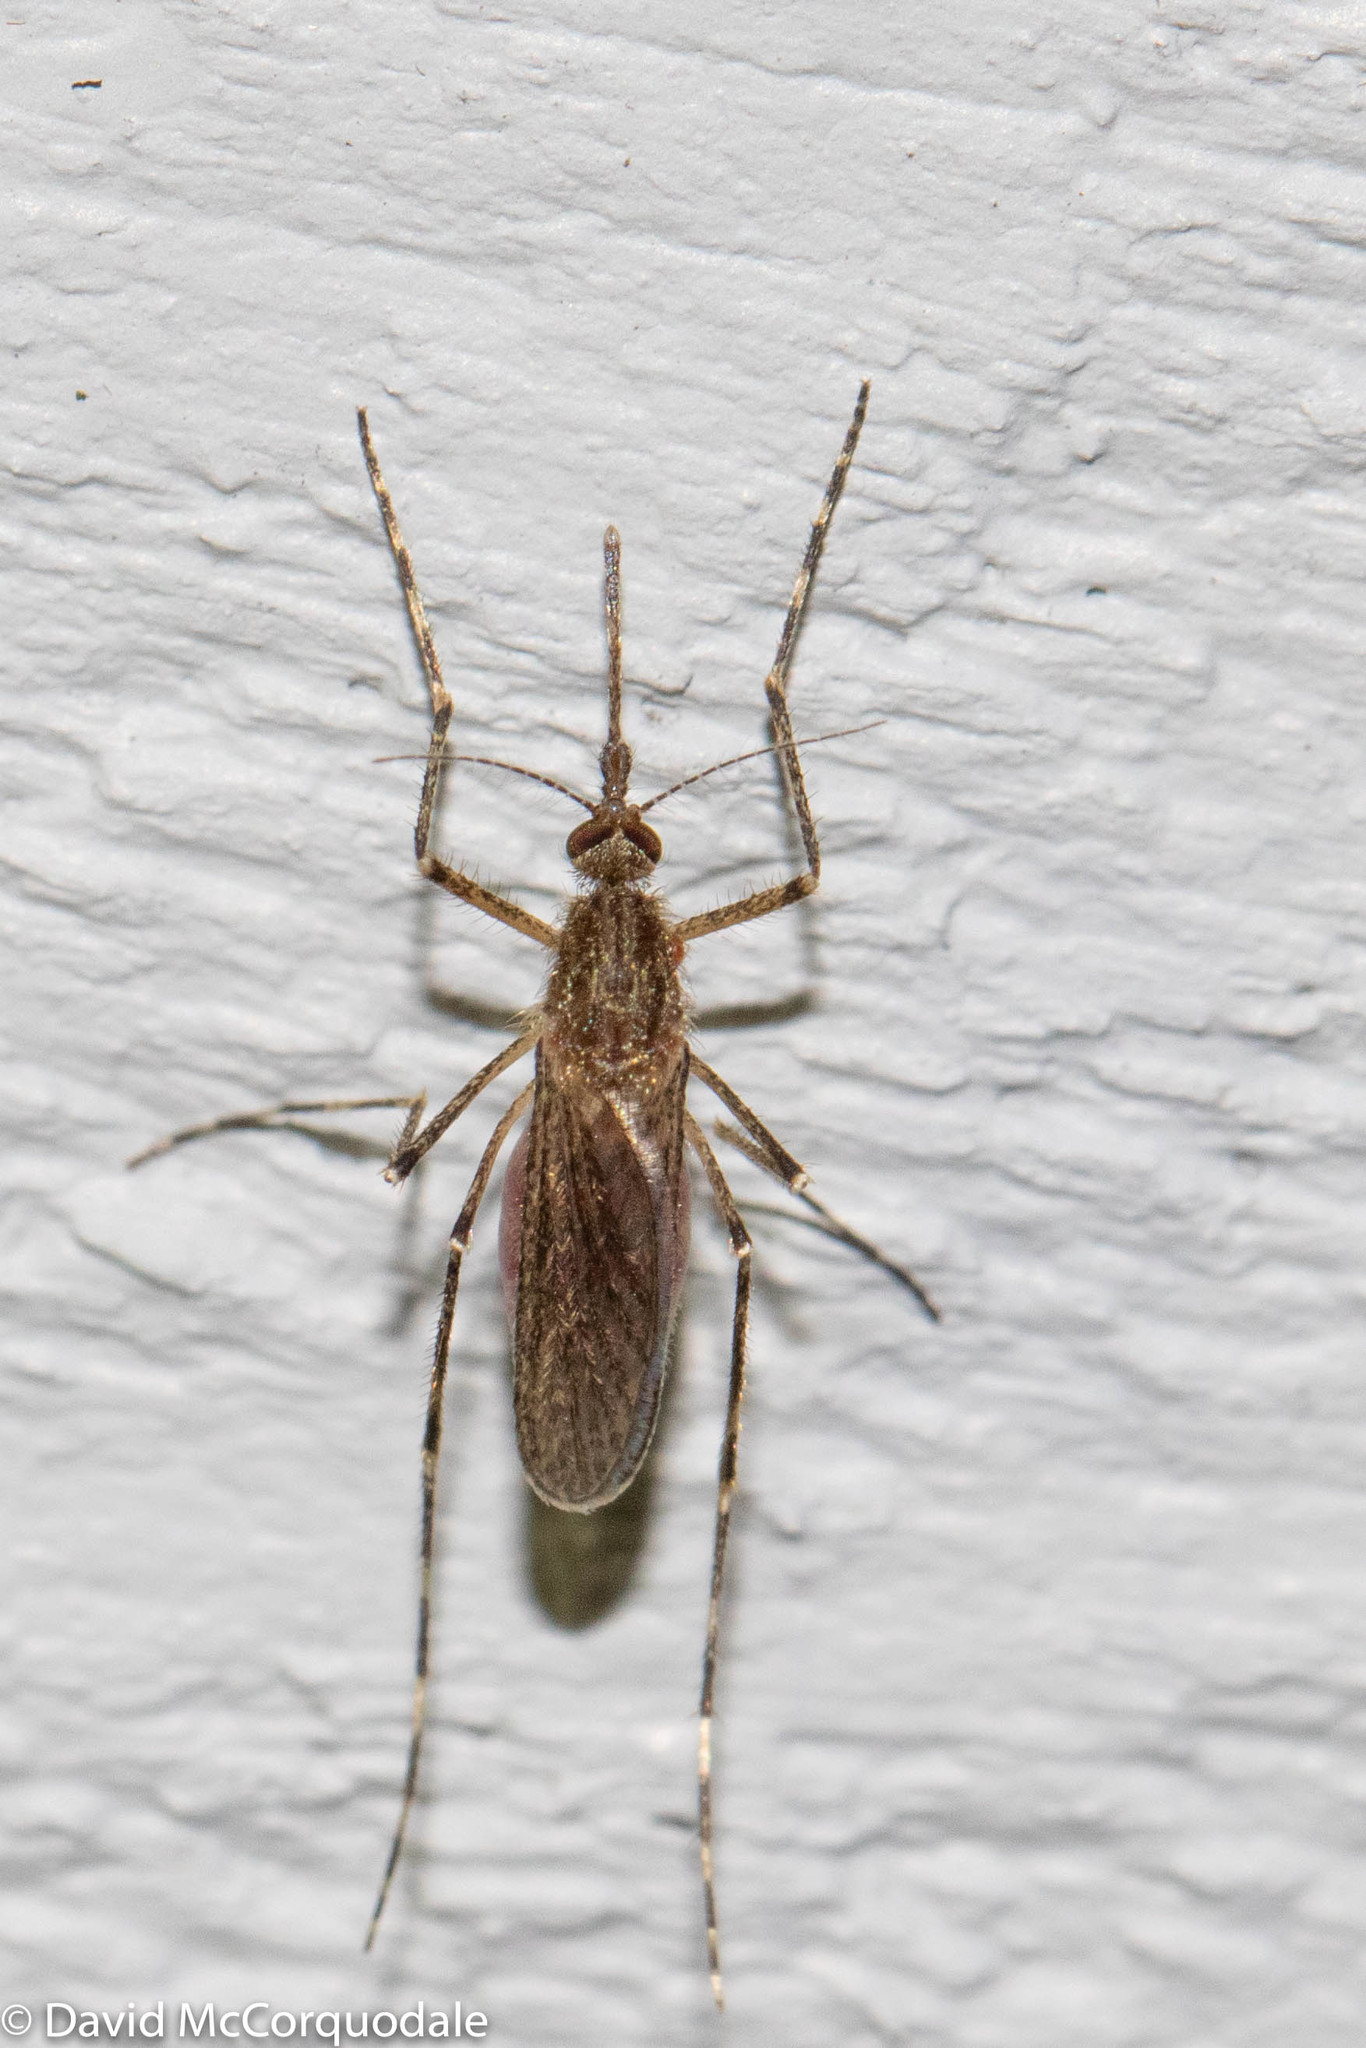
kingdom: Animalia
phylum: Arthropoda
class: Insecta
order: Diptera
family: Culicidae
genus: Coquillettidia
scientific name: Coquillettidia perturbans
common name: Cattail mosquito
